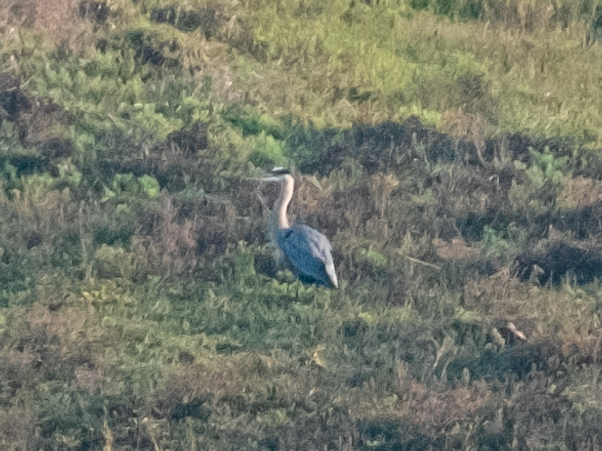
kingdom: Animalia
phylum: Chordata
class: Aves
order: Pelecaniformes
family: Ardeidae
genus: Ardea
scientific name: Ardea herodias
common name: Great blue heron
